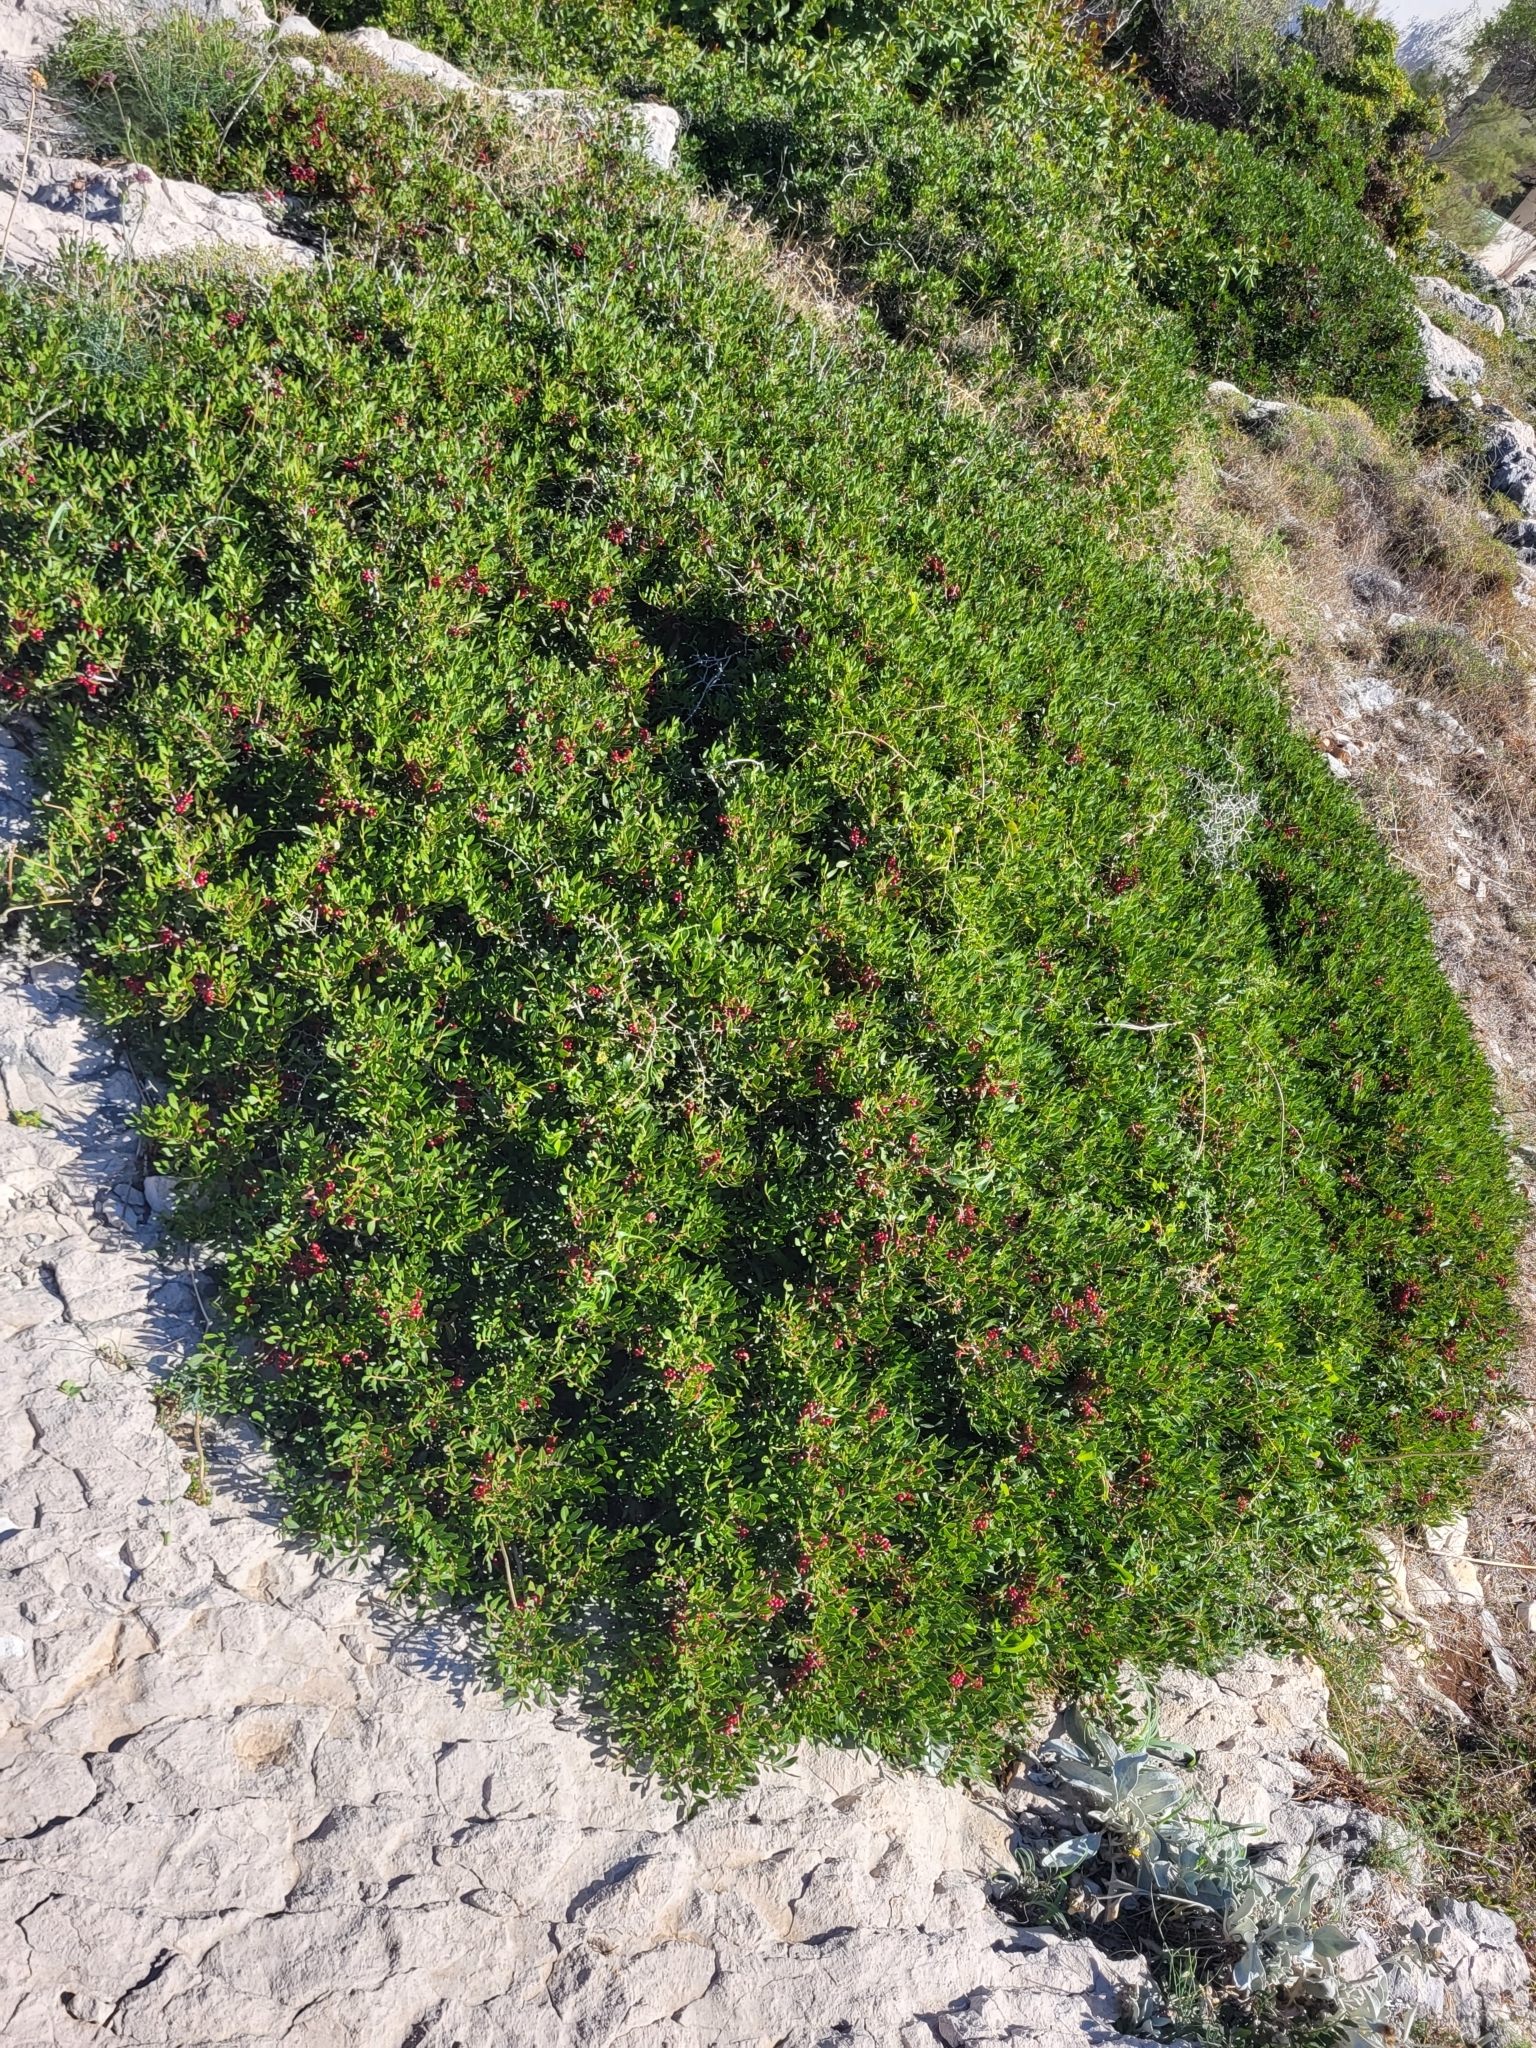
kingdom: Plantae
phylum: Tracheophyta
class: Magnoliopsida
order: Sapindales
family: Anacardiaceae
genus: Pistacia
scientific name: Pistacia lentiscus
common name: Lentisk
